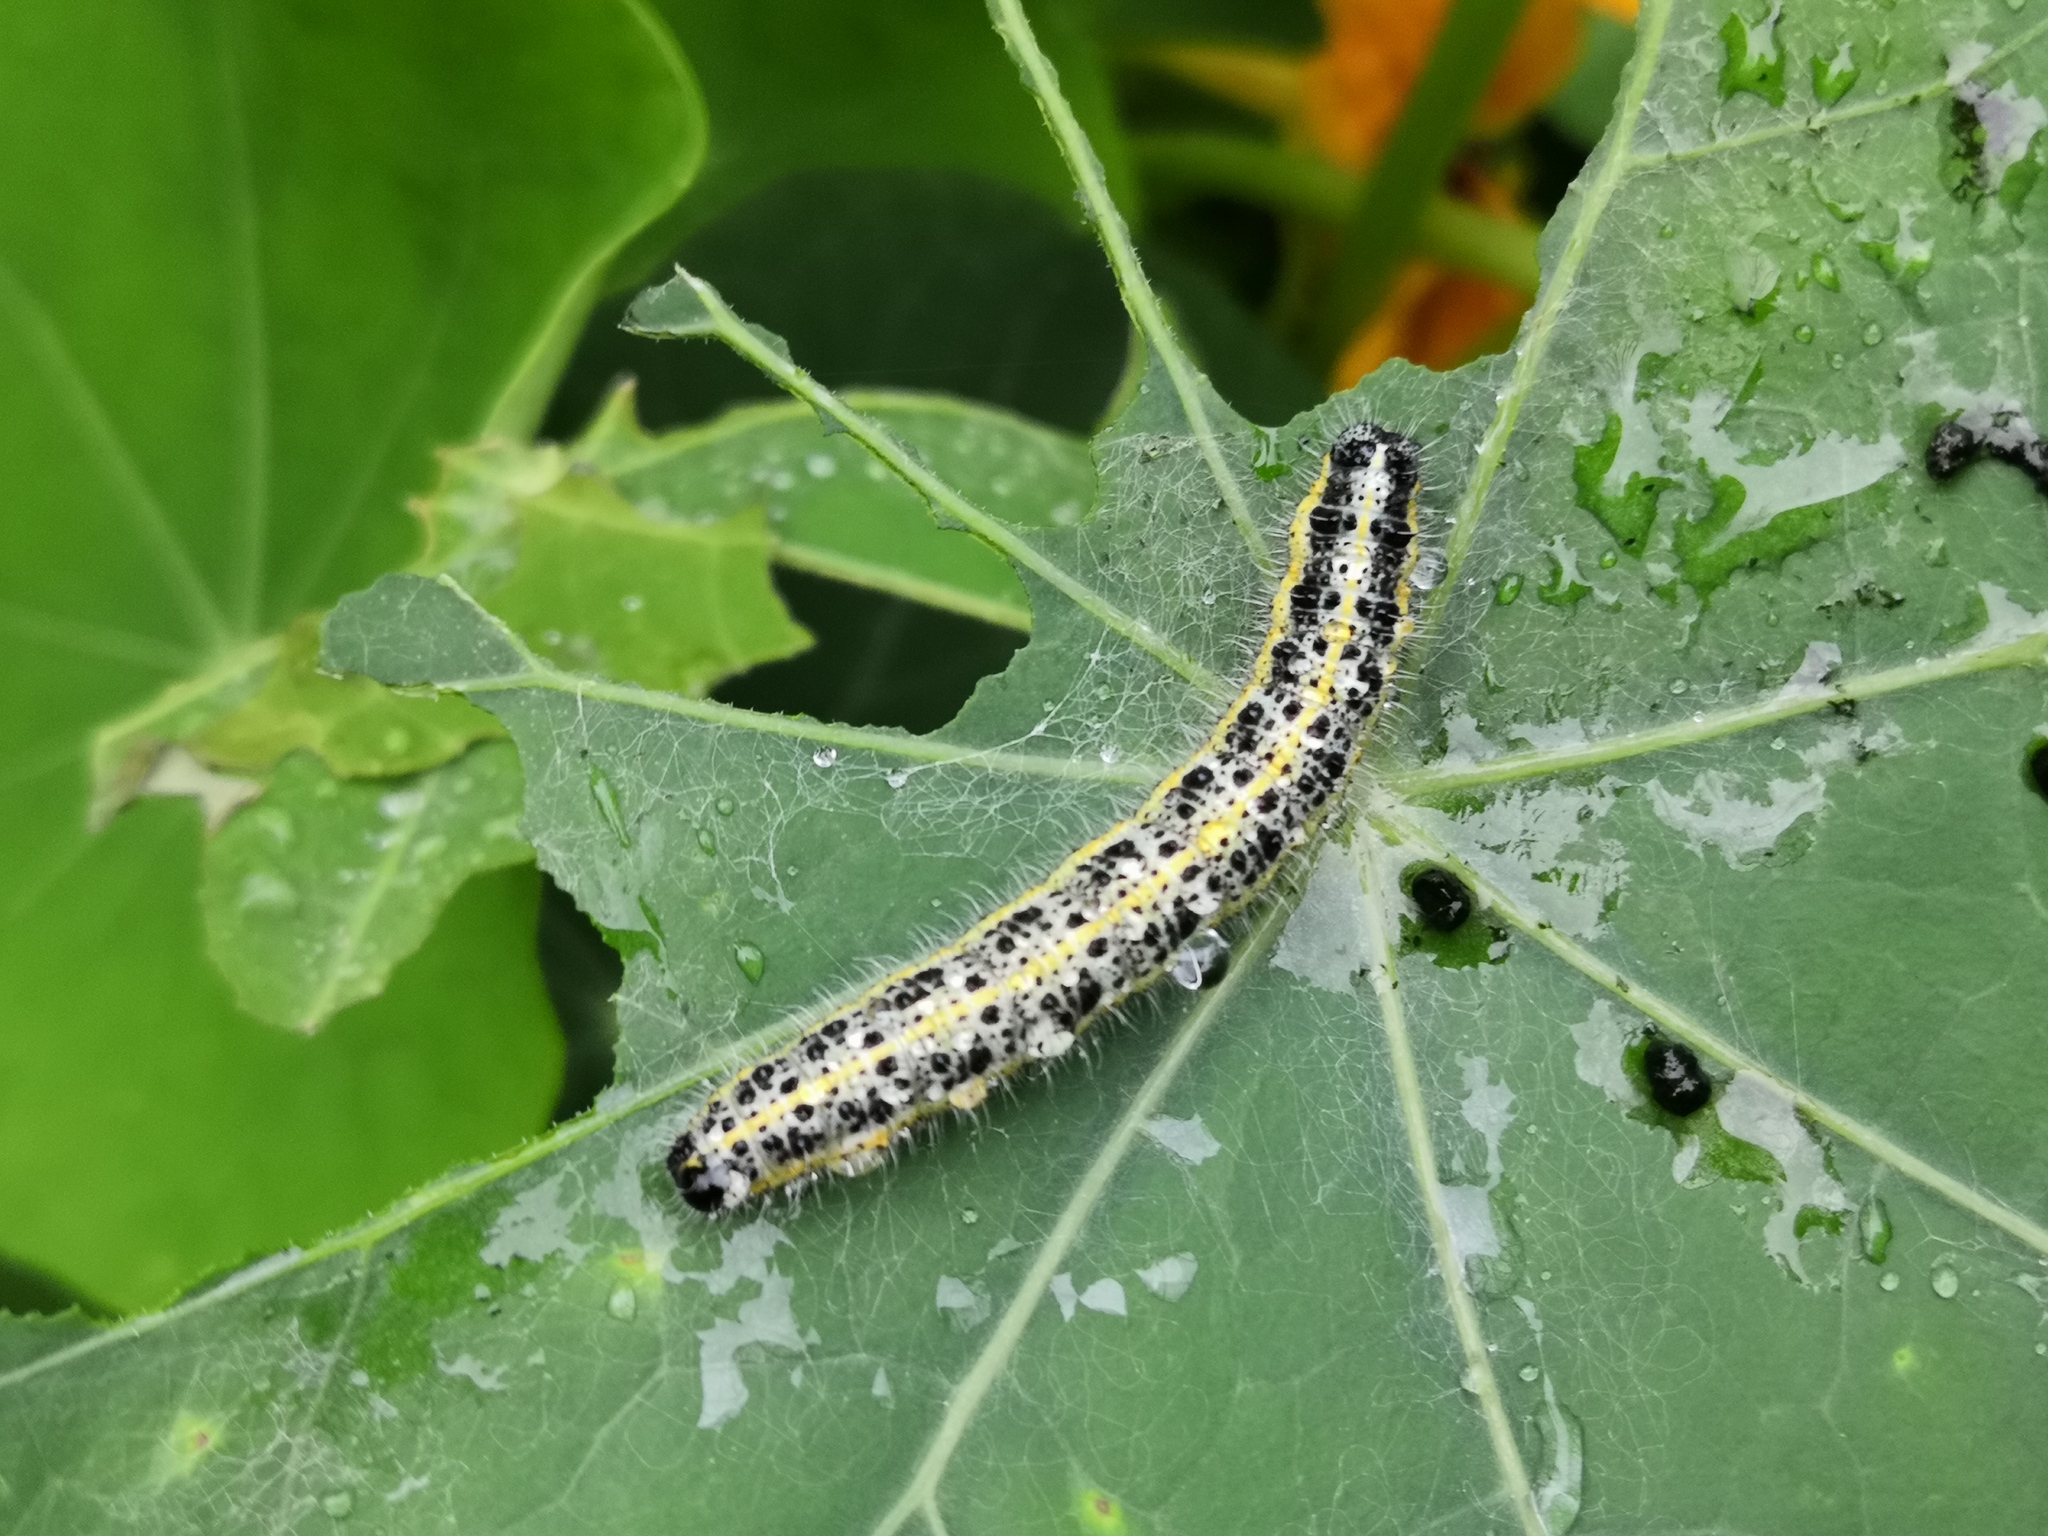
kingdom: Animalia
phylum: Arthropoda
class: Insecta
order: Lepidoptera
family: Pieridae
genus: Pieris
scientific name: Pieris brassicae
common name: Large white
